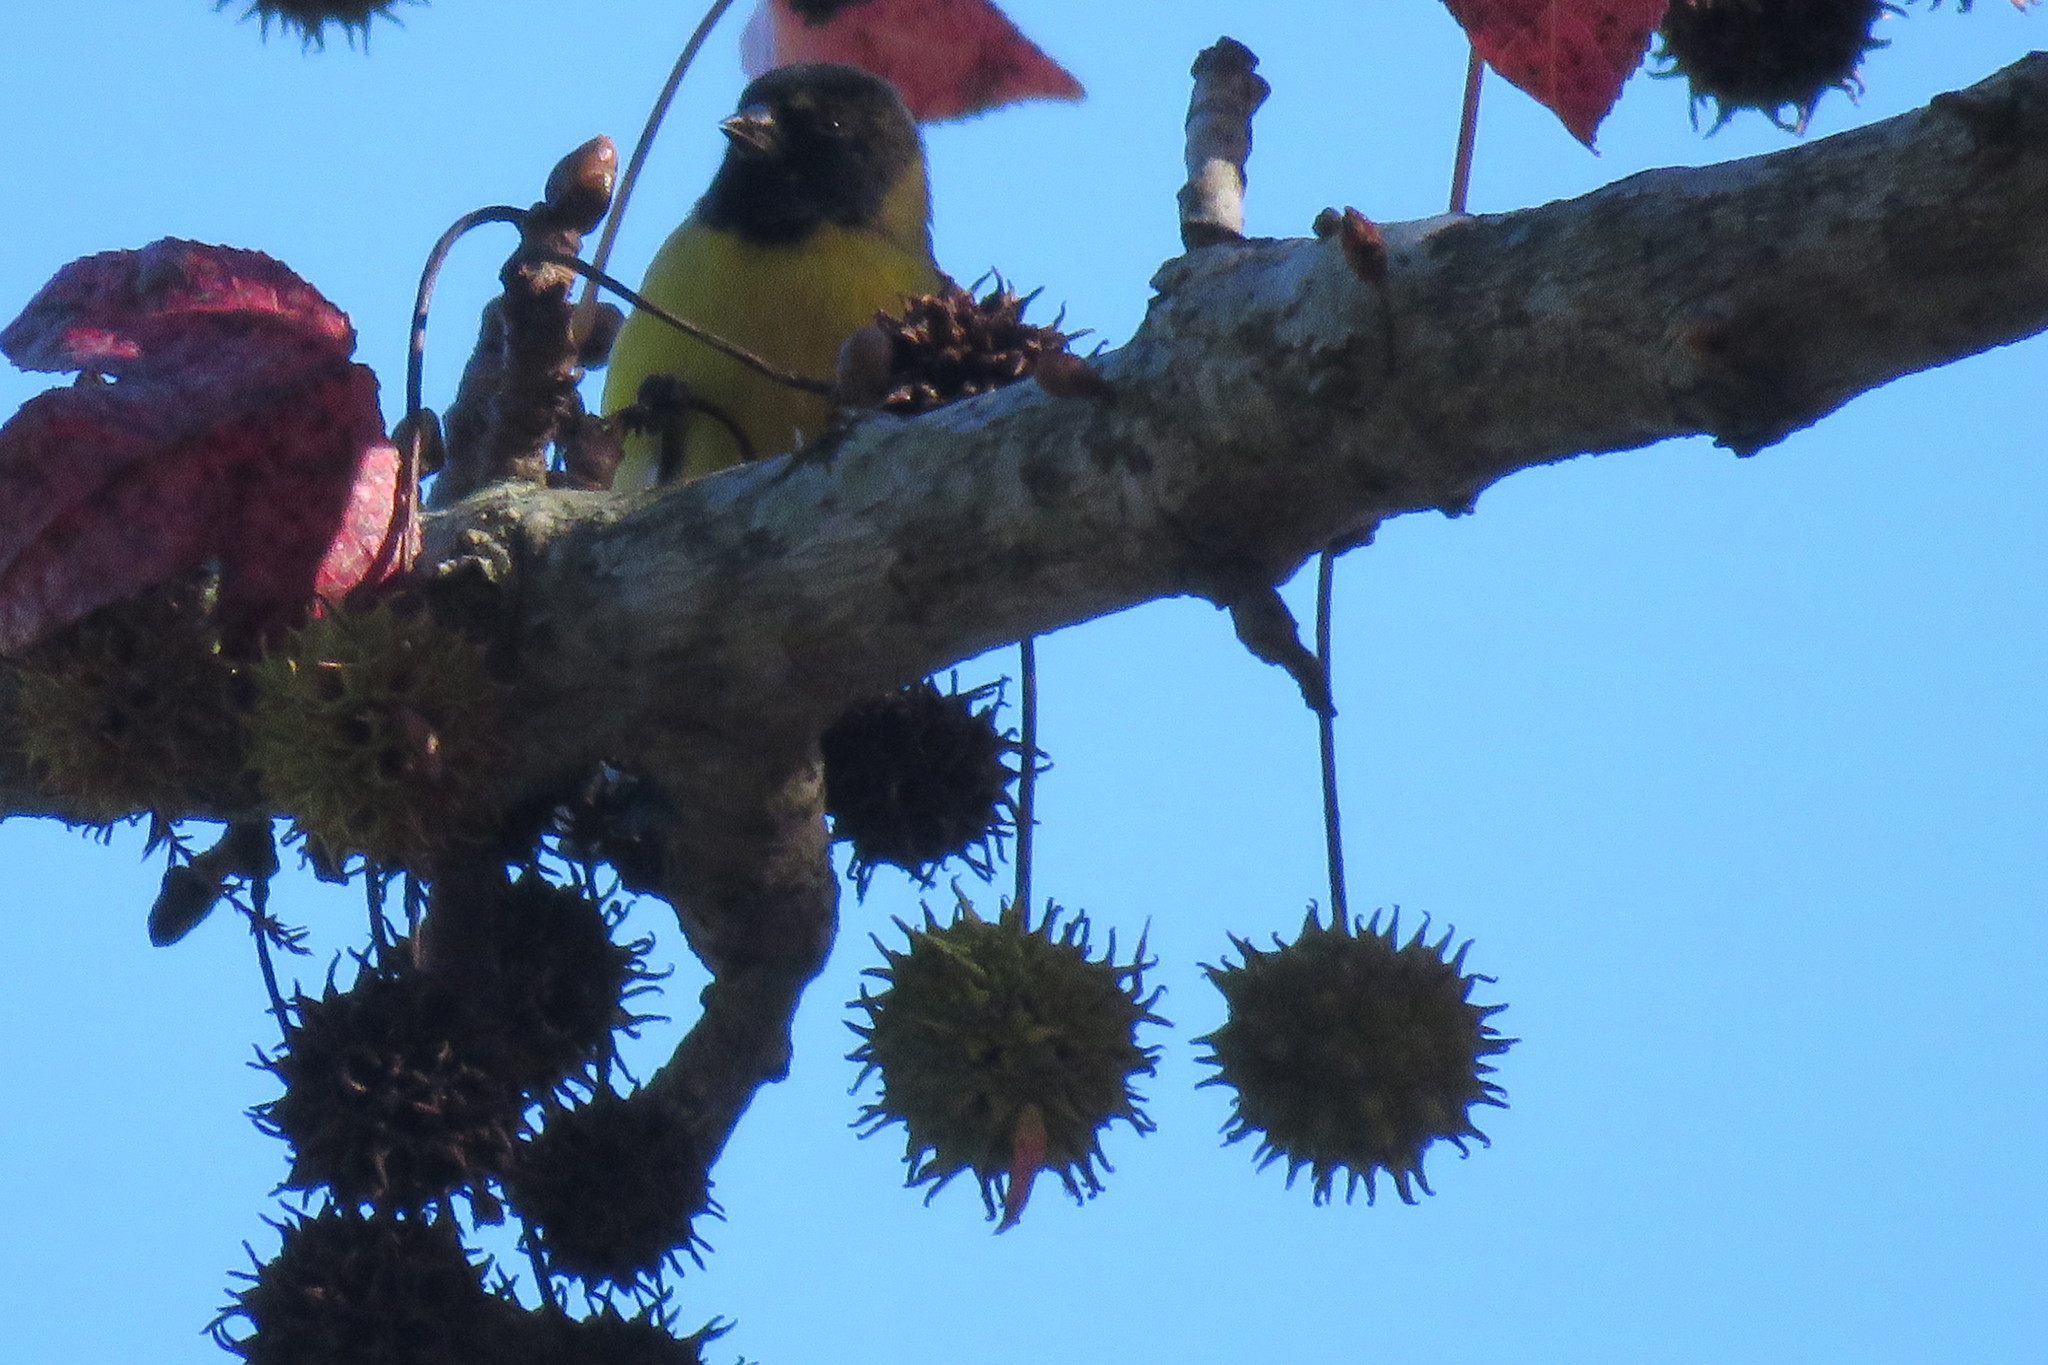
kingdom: Animalia
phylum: Chordata
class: Aves
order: Passeriformes
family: Fringillidae
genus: Spinus
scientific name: Spinus magellanicus
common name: Hooded siskin
